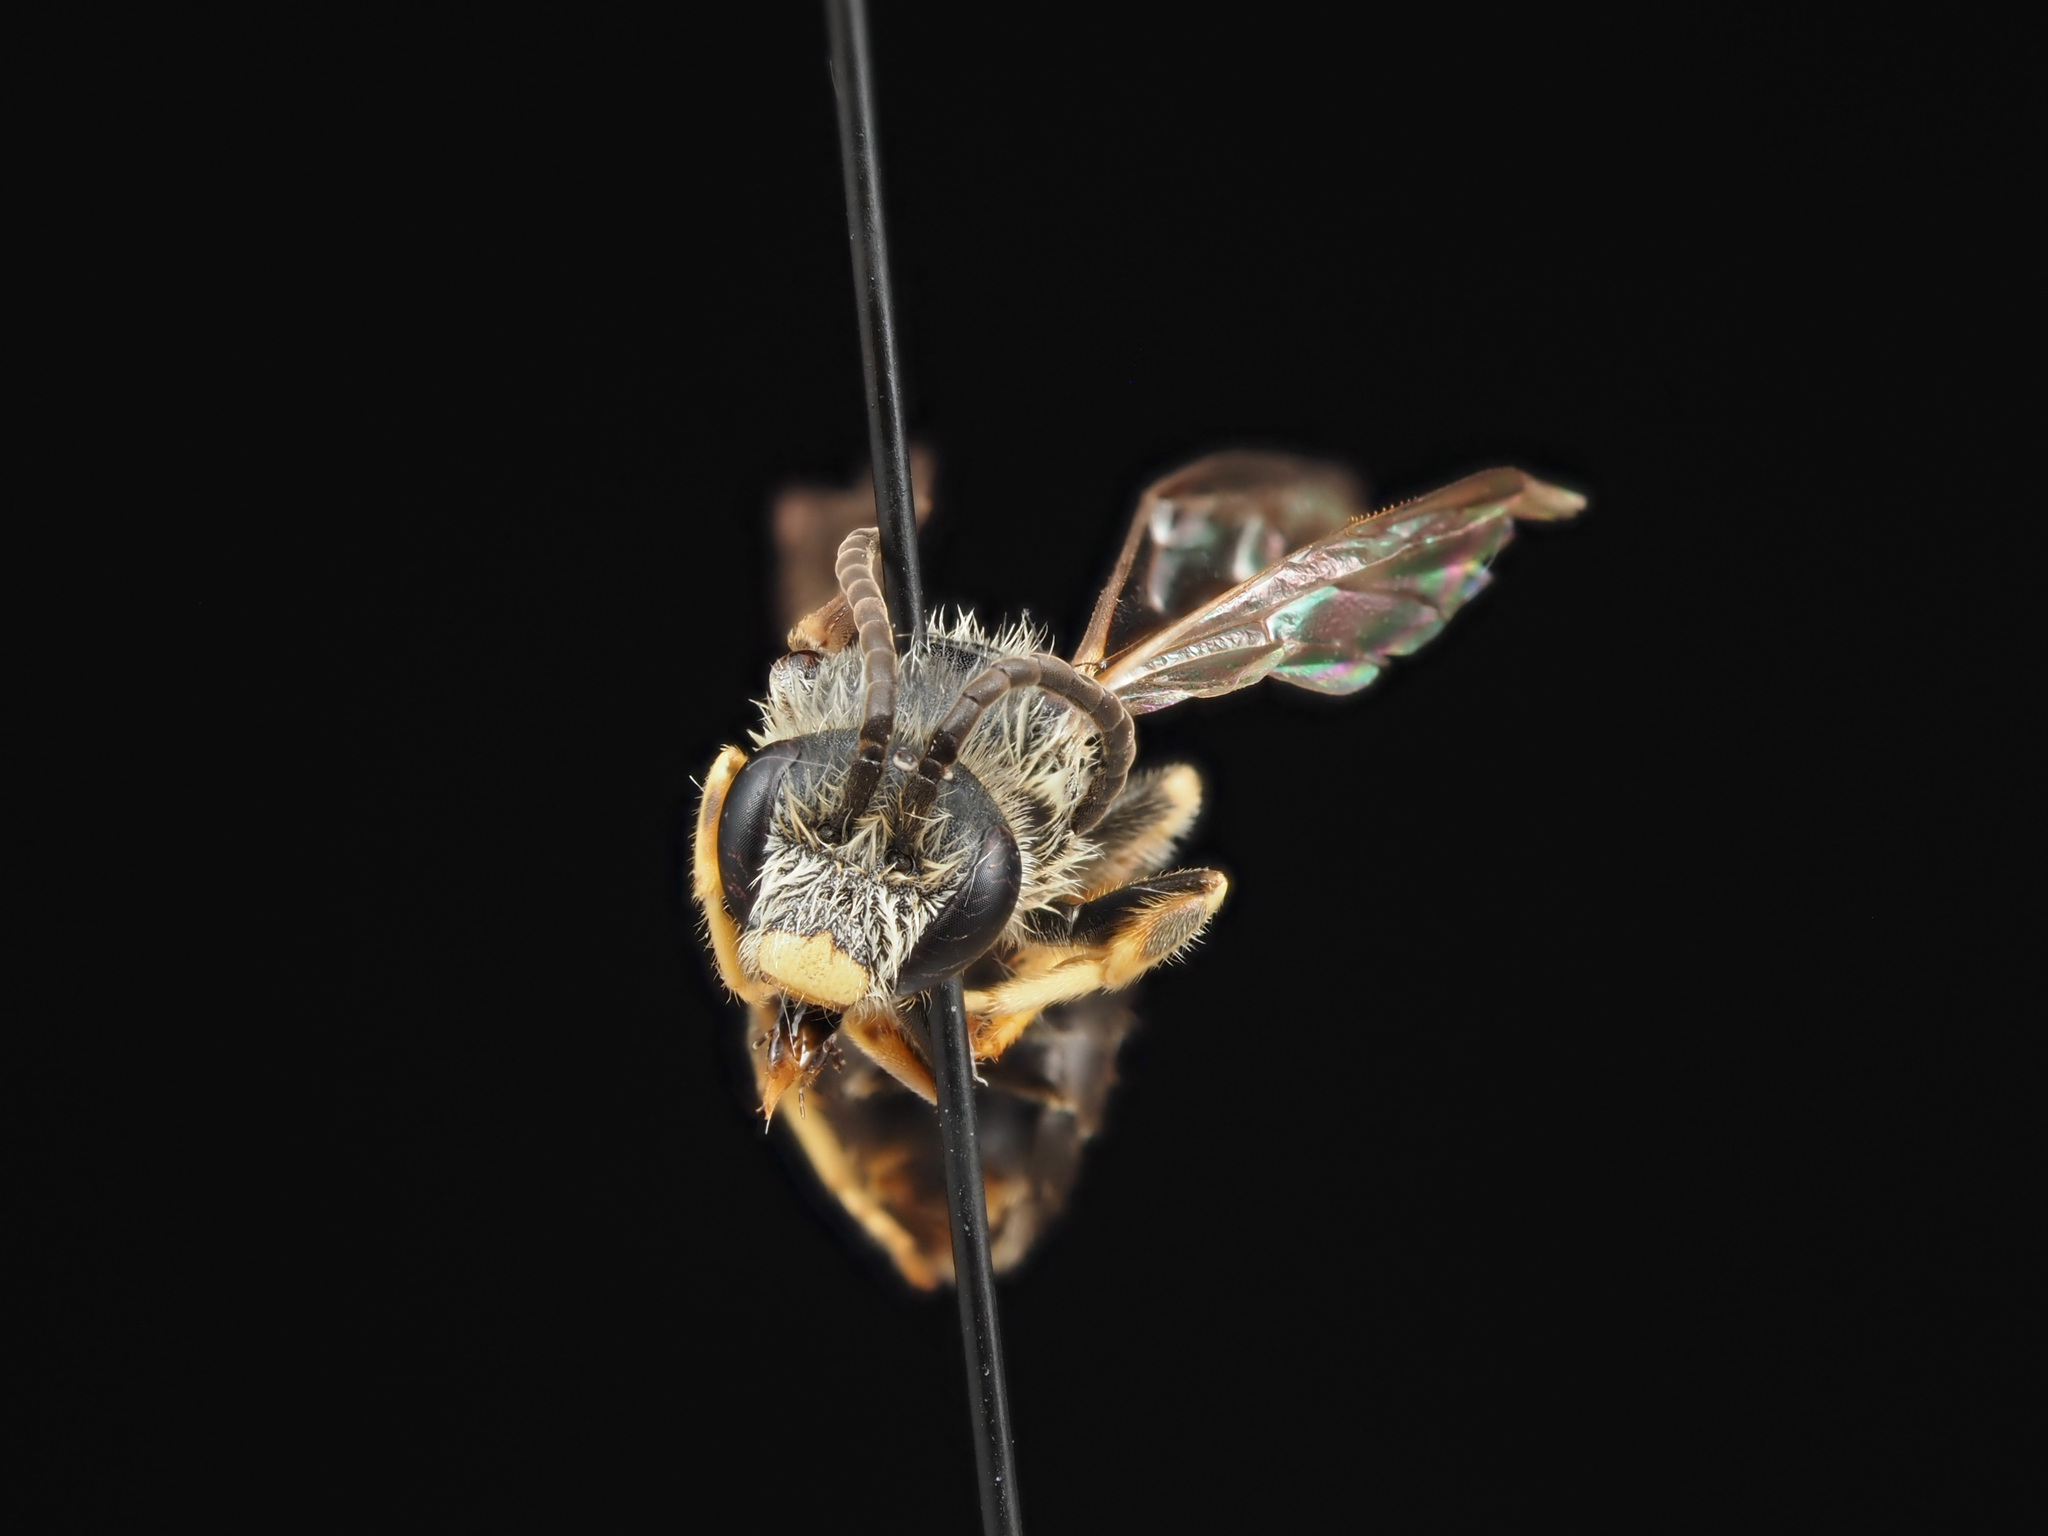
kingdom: Animalia
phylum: Arthropoda
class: Insecta
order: Hymenoptera
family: Halictidae
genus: Halictus
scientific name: Halictus rubicundus
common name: Orange-legged furrow bee
